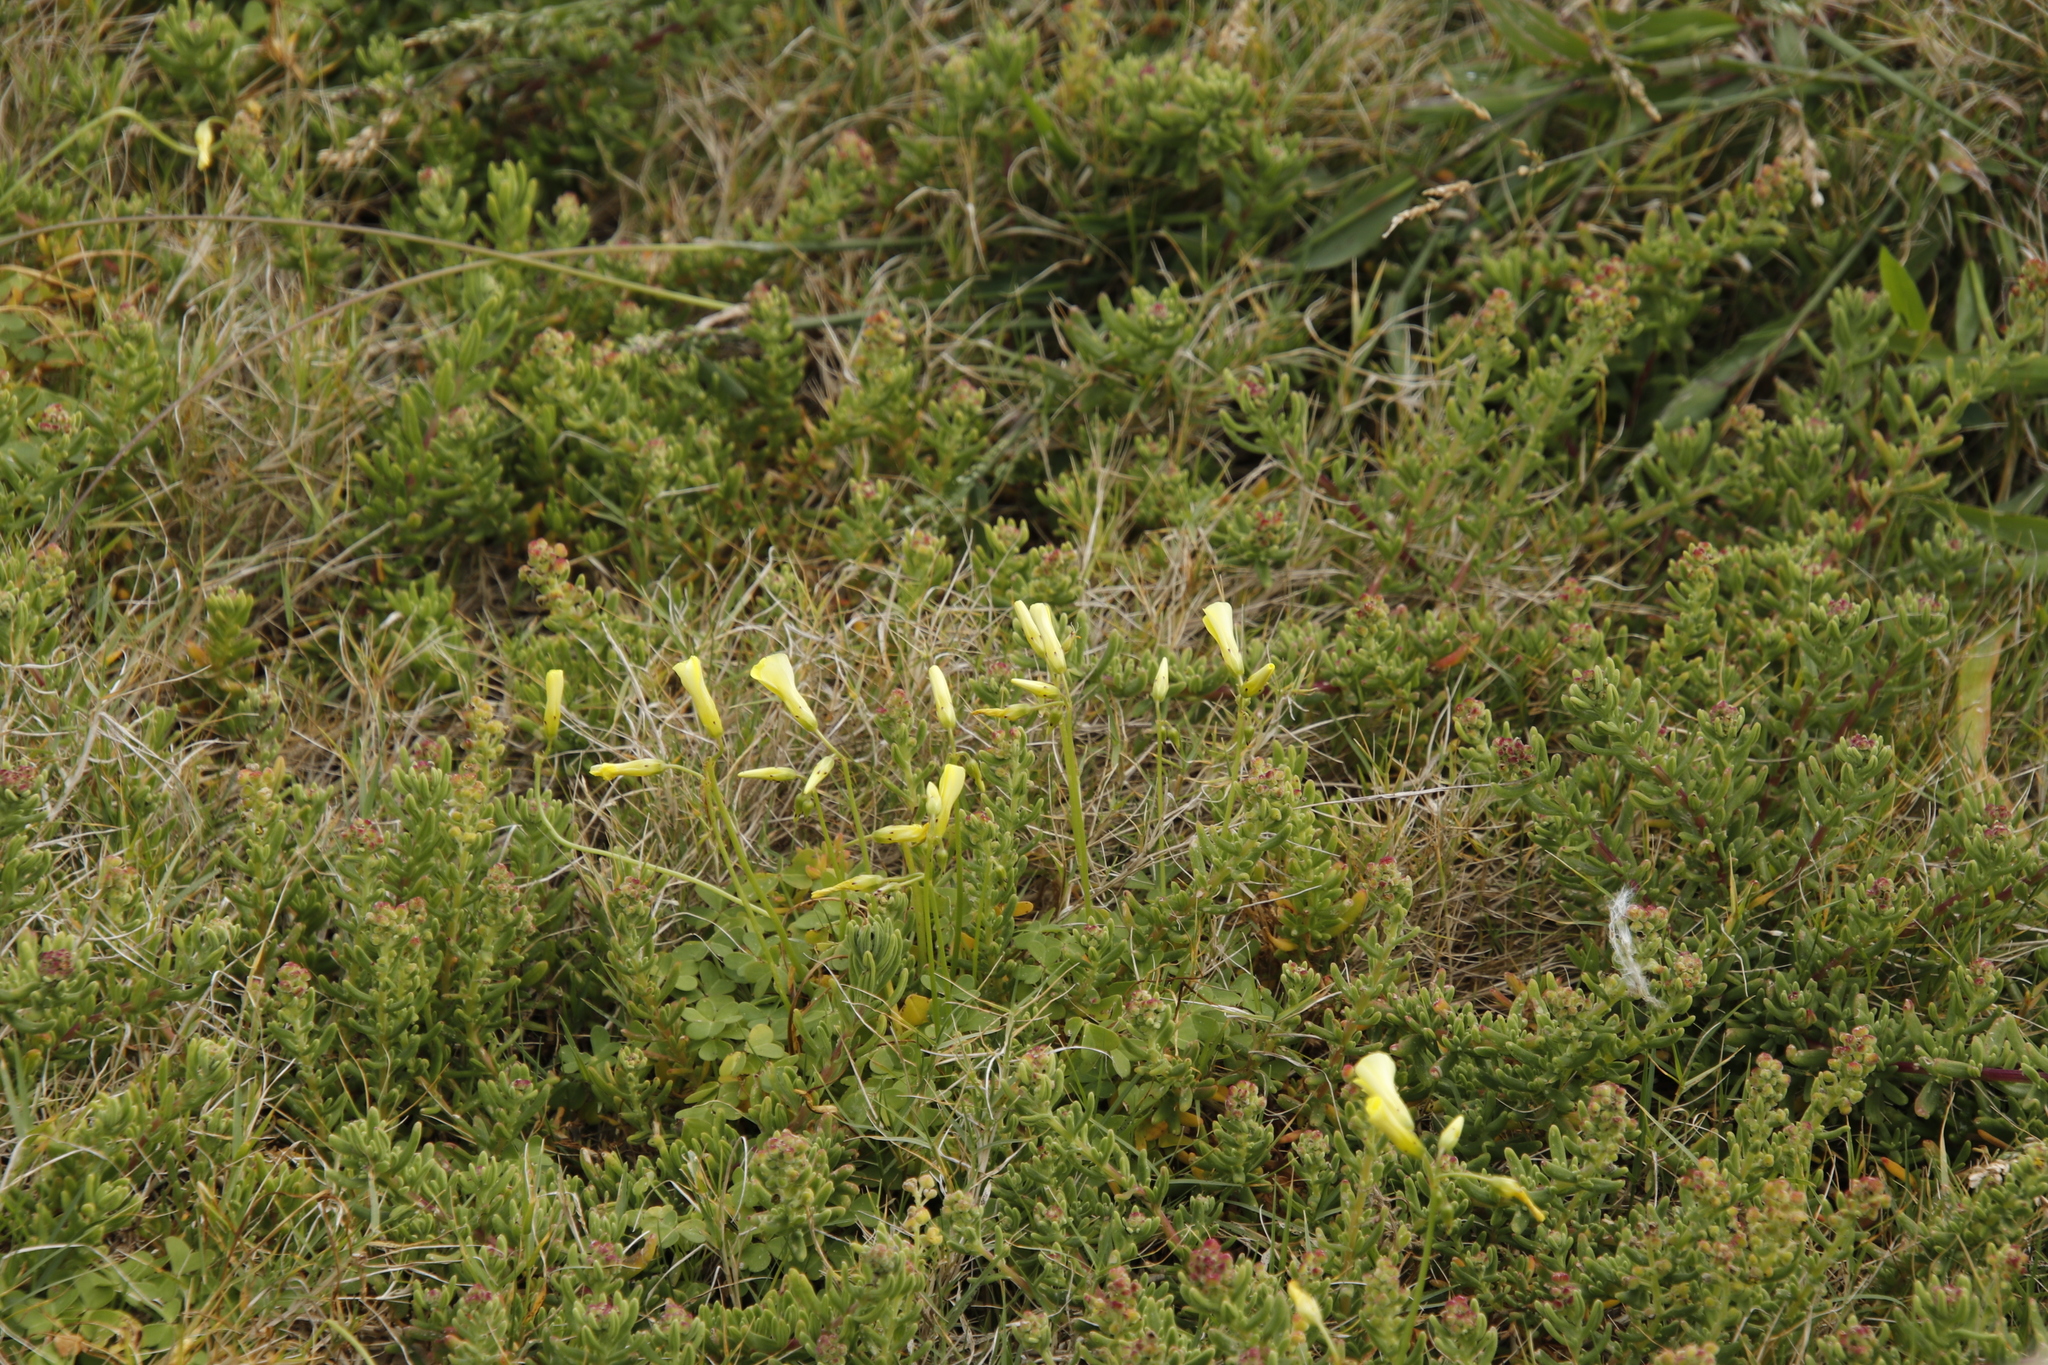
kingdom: Plantae
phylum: Tracheophyta
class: Magnoliopsida
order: Oxalidales
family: Oxalidaceae
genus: Oxalis
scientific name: Oxalis pes-caprae
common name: Bermuda-buttercup
